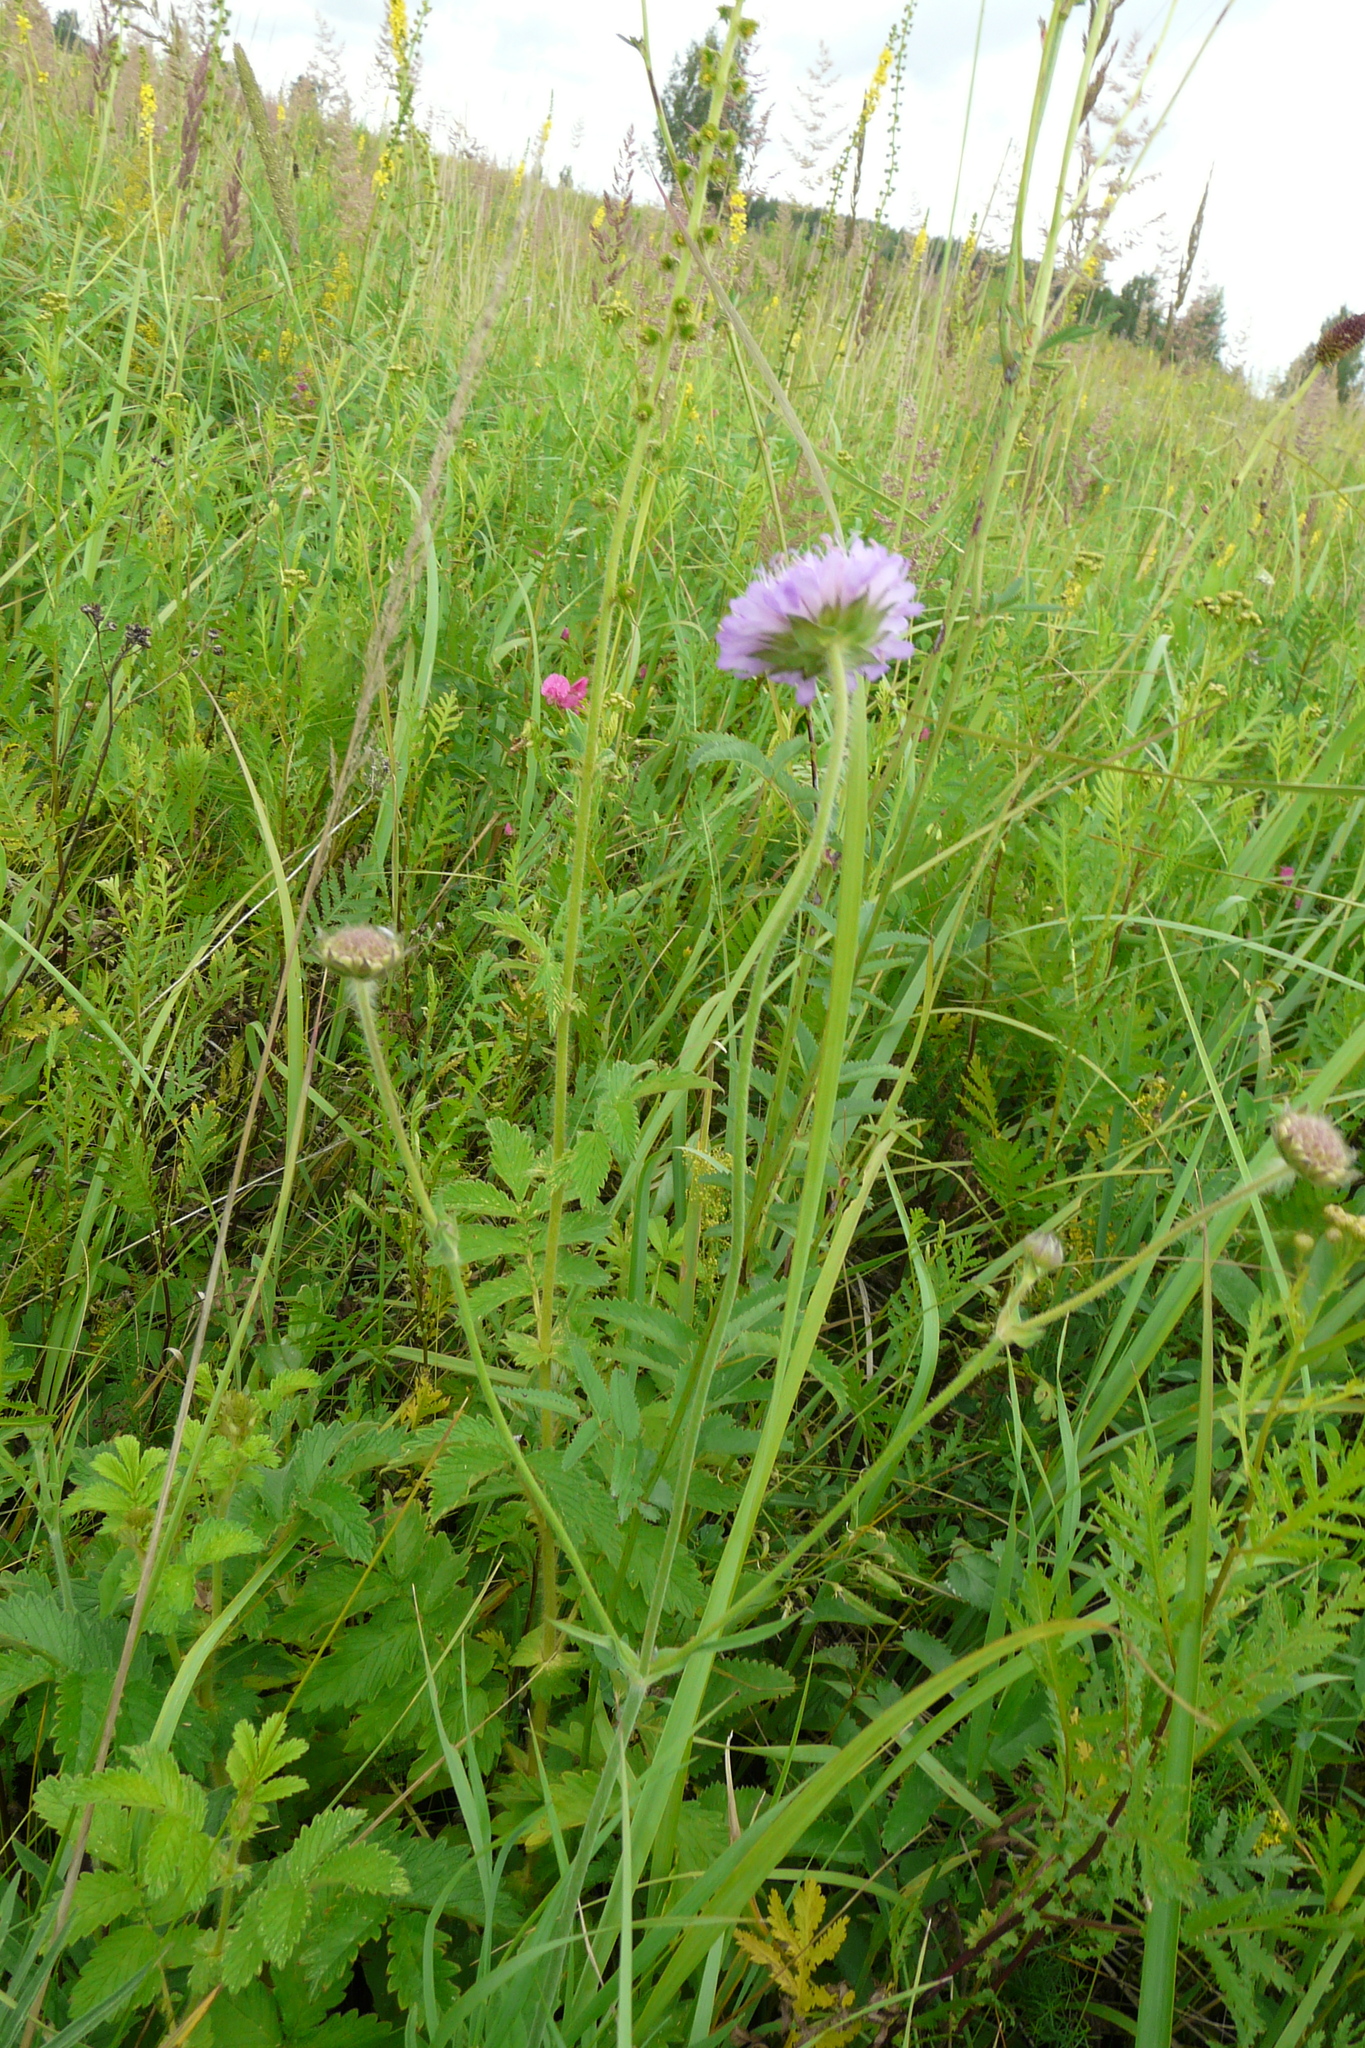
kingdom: Plantae
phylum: Tracheophyta
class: Magnoliopsida
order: Dipsacales
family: Caprifoliaceae
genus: Knautia
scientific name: Knautia arvensis
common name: Field scabiosa
